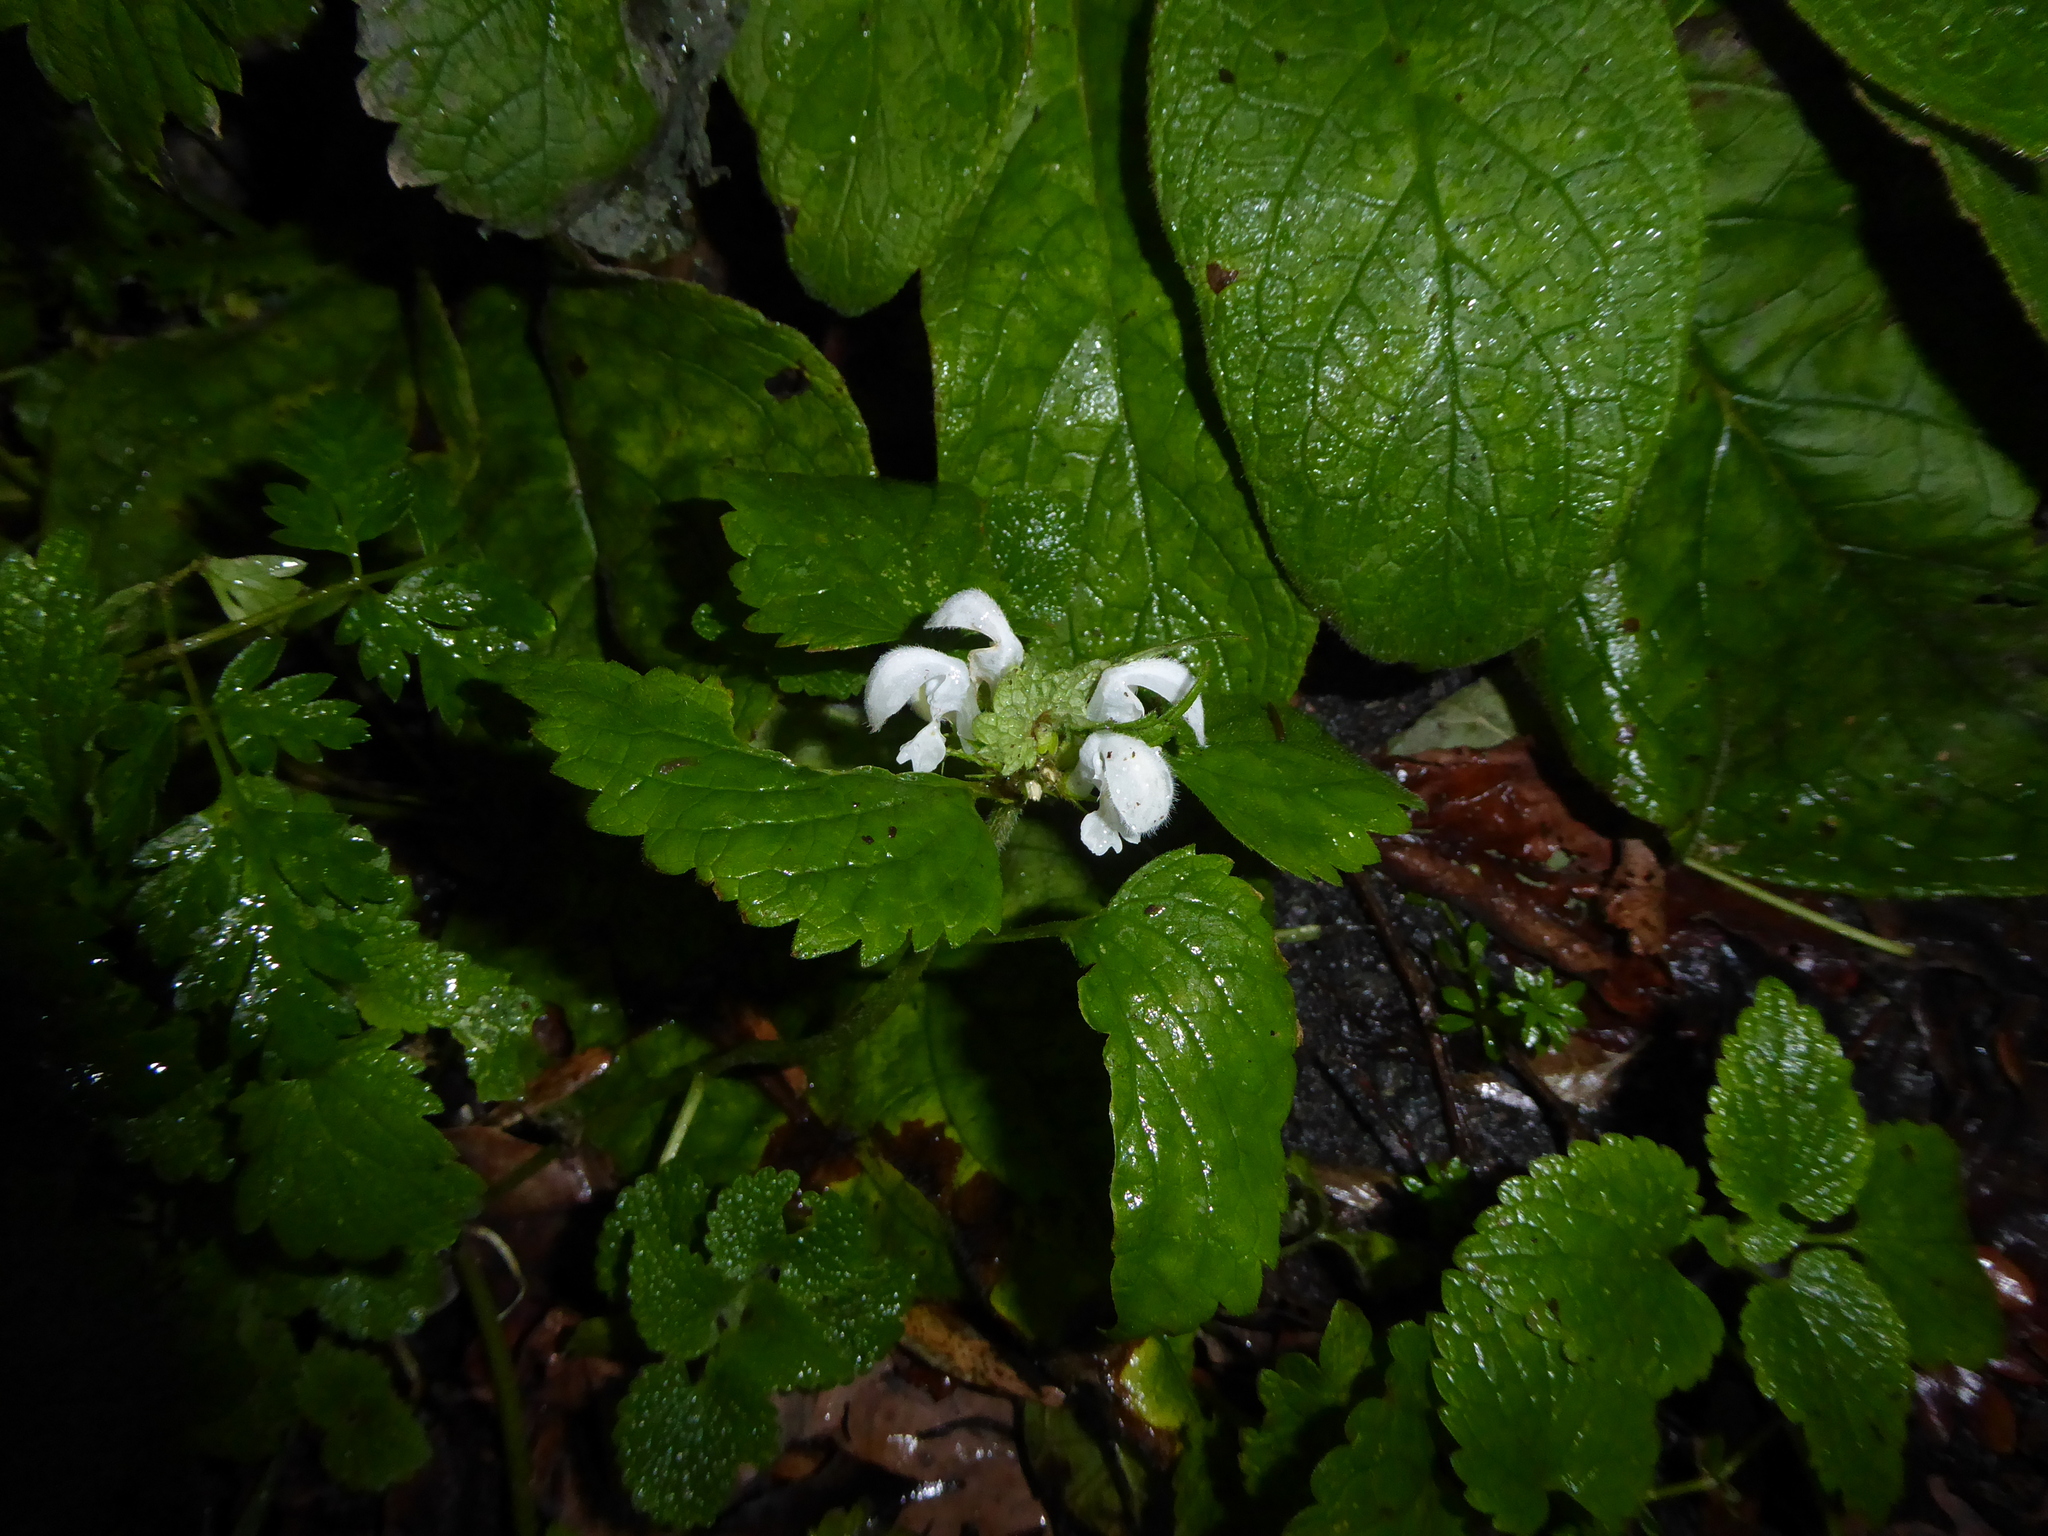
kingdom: Plantae
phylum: Tracheophyta
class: Magnoliopsida
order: Lamiales
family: Lamiaceae
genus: Lamium
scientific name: Lamium album
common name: White dead-nettle
